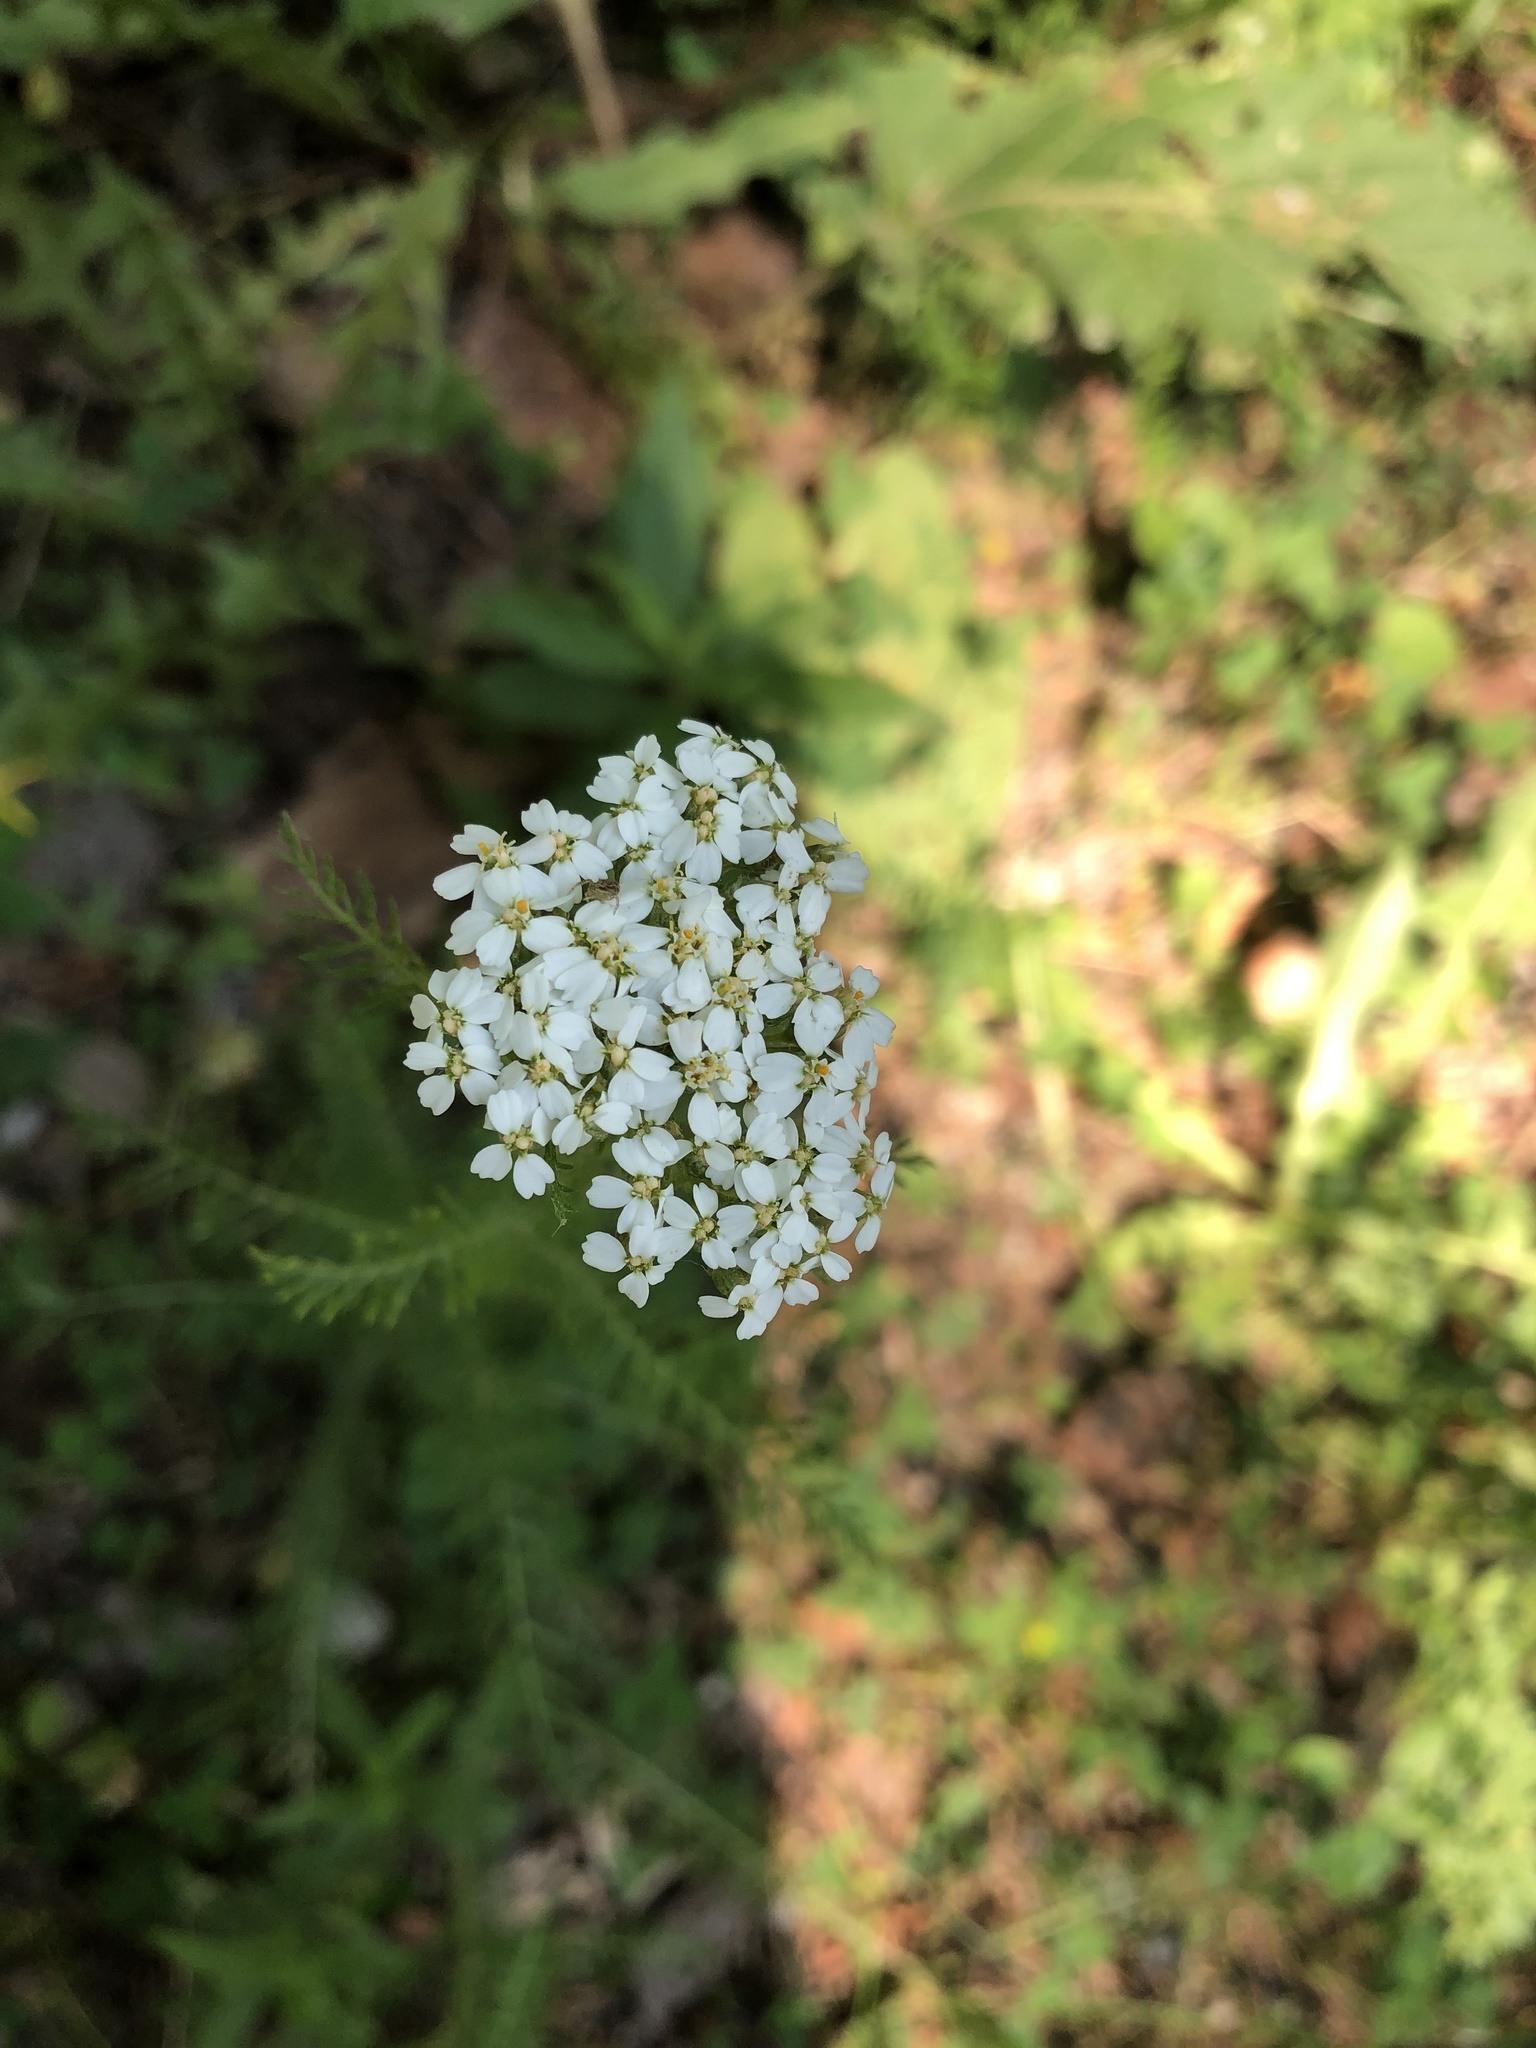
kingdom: Plantae
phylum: Tracheophyta
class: Magnoliopsida
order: Asterales
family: Asteraceae
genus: Achillea
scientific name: Achillea millefolium
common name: Yarrow
